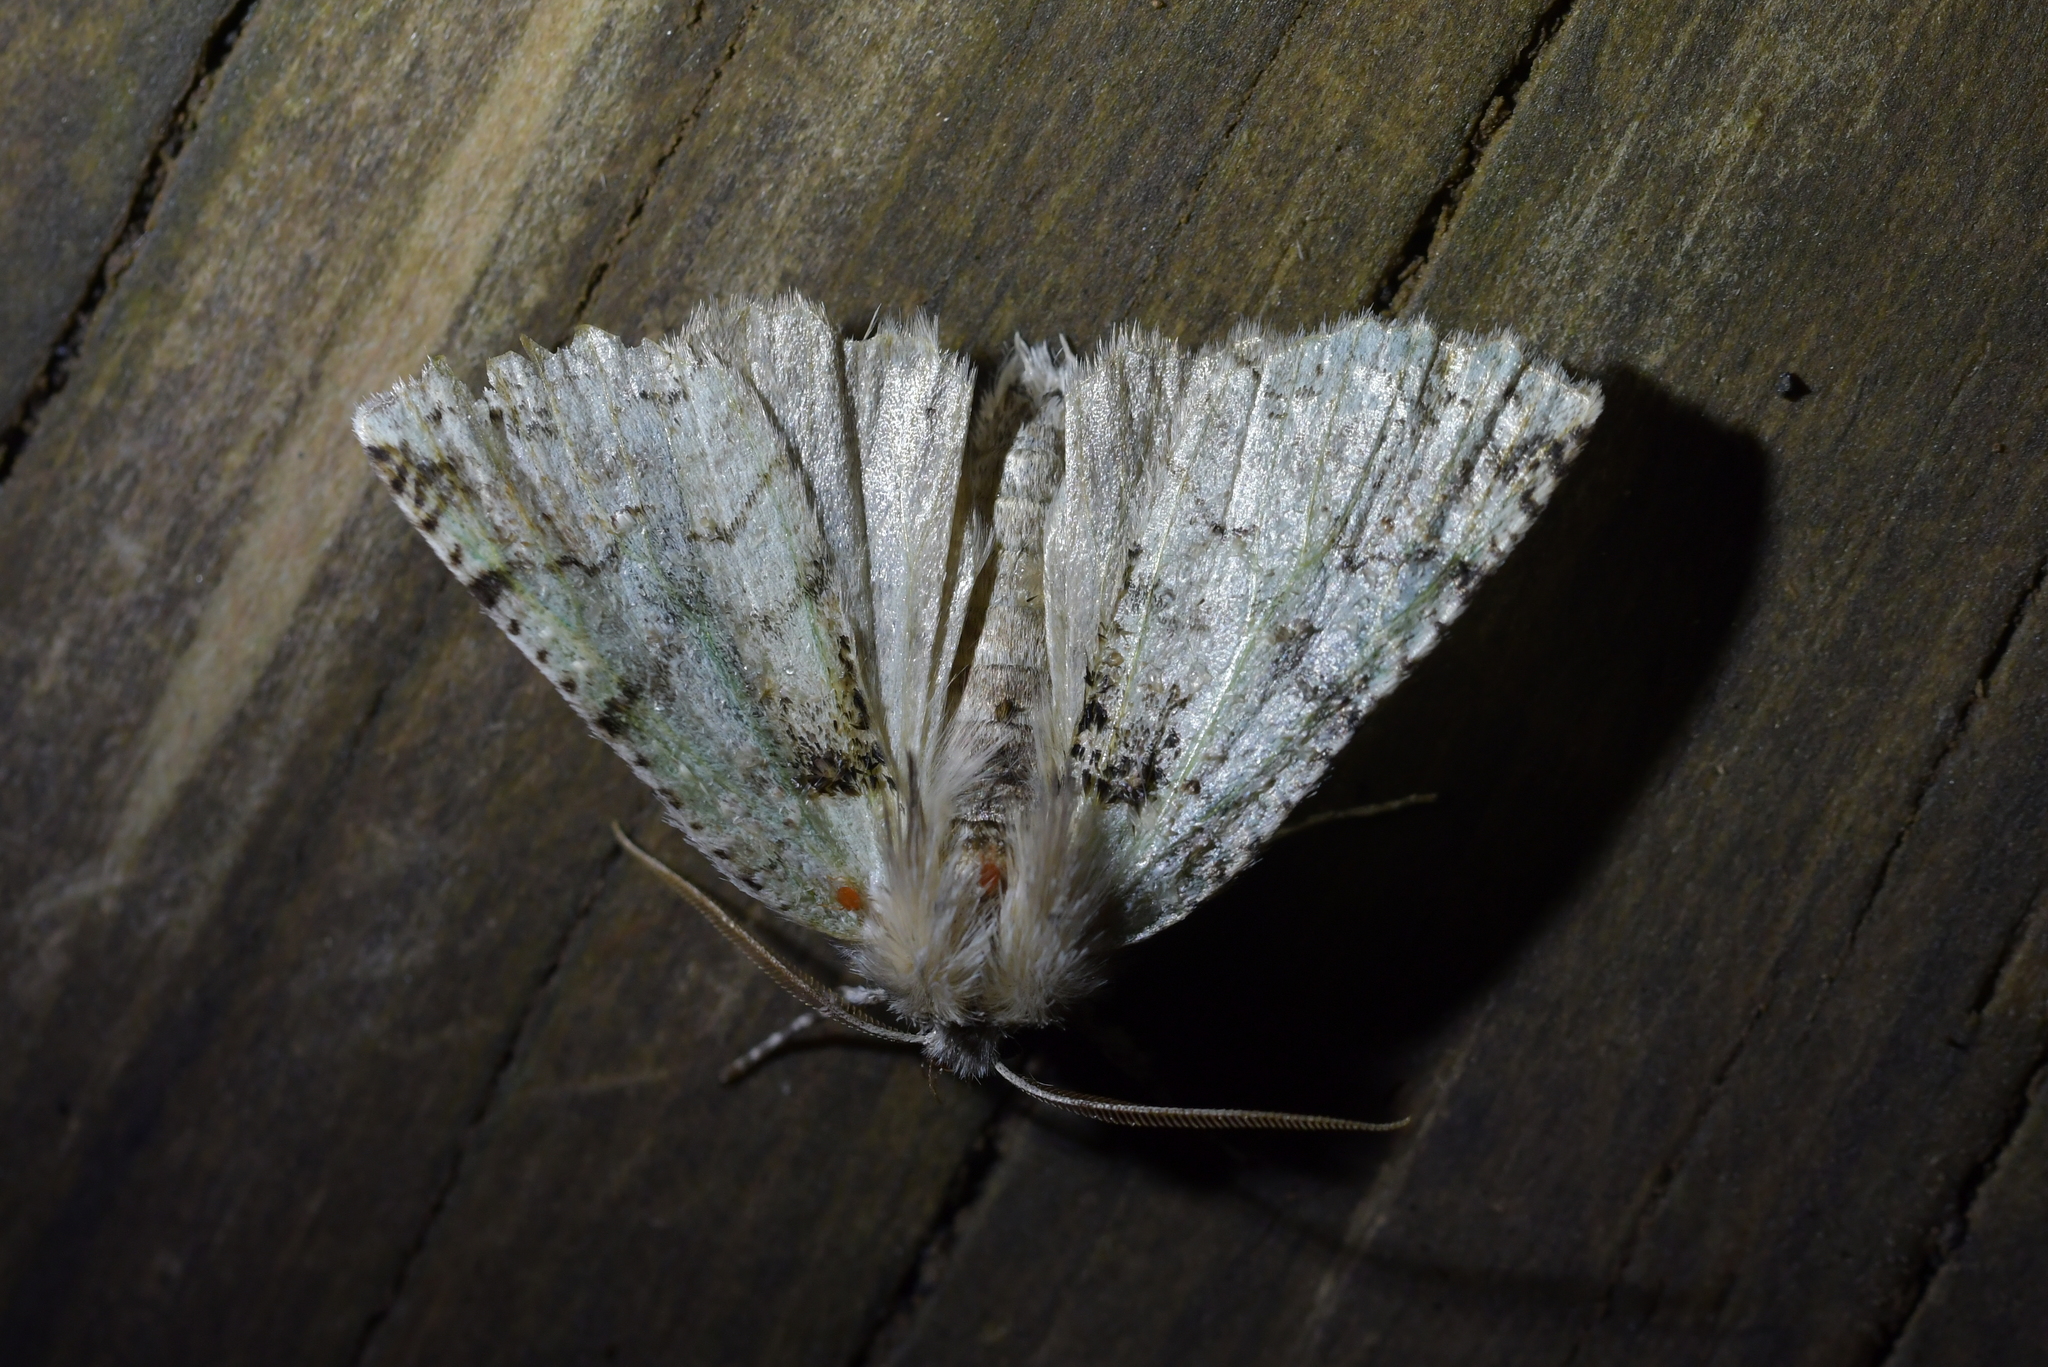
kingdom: Animalia
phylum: Arthropoda
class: Insecta
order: Lepidoptera
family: Geometridae
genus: Declana
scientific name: Declana floccosa
